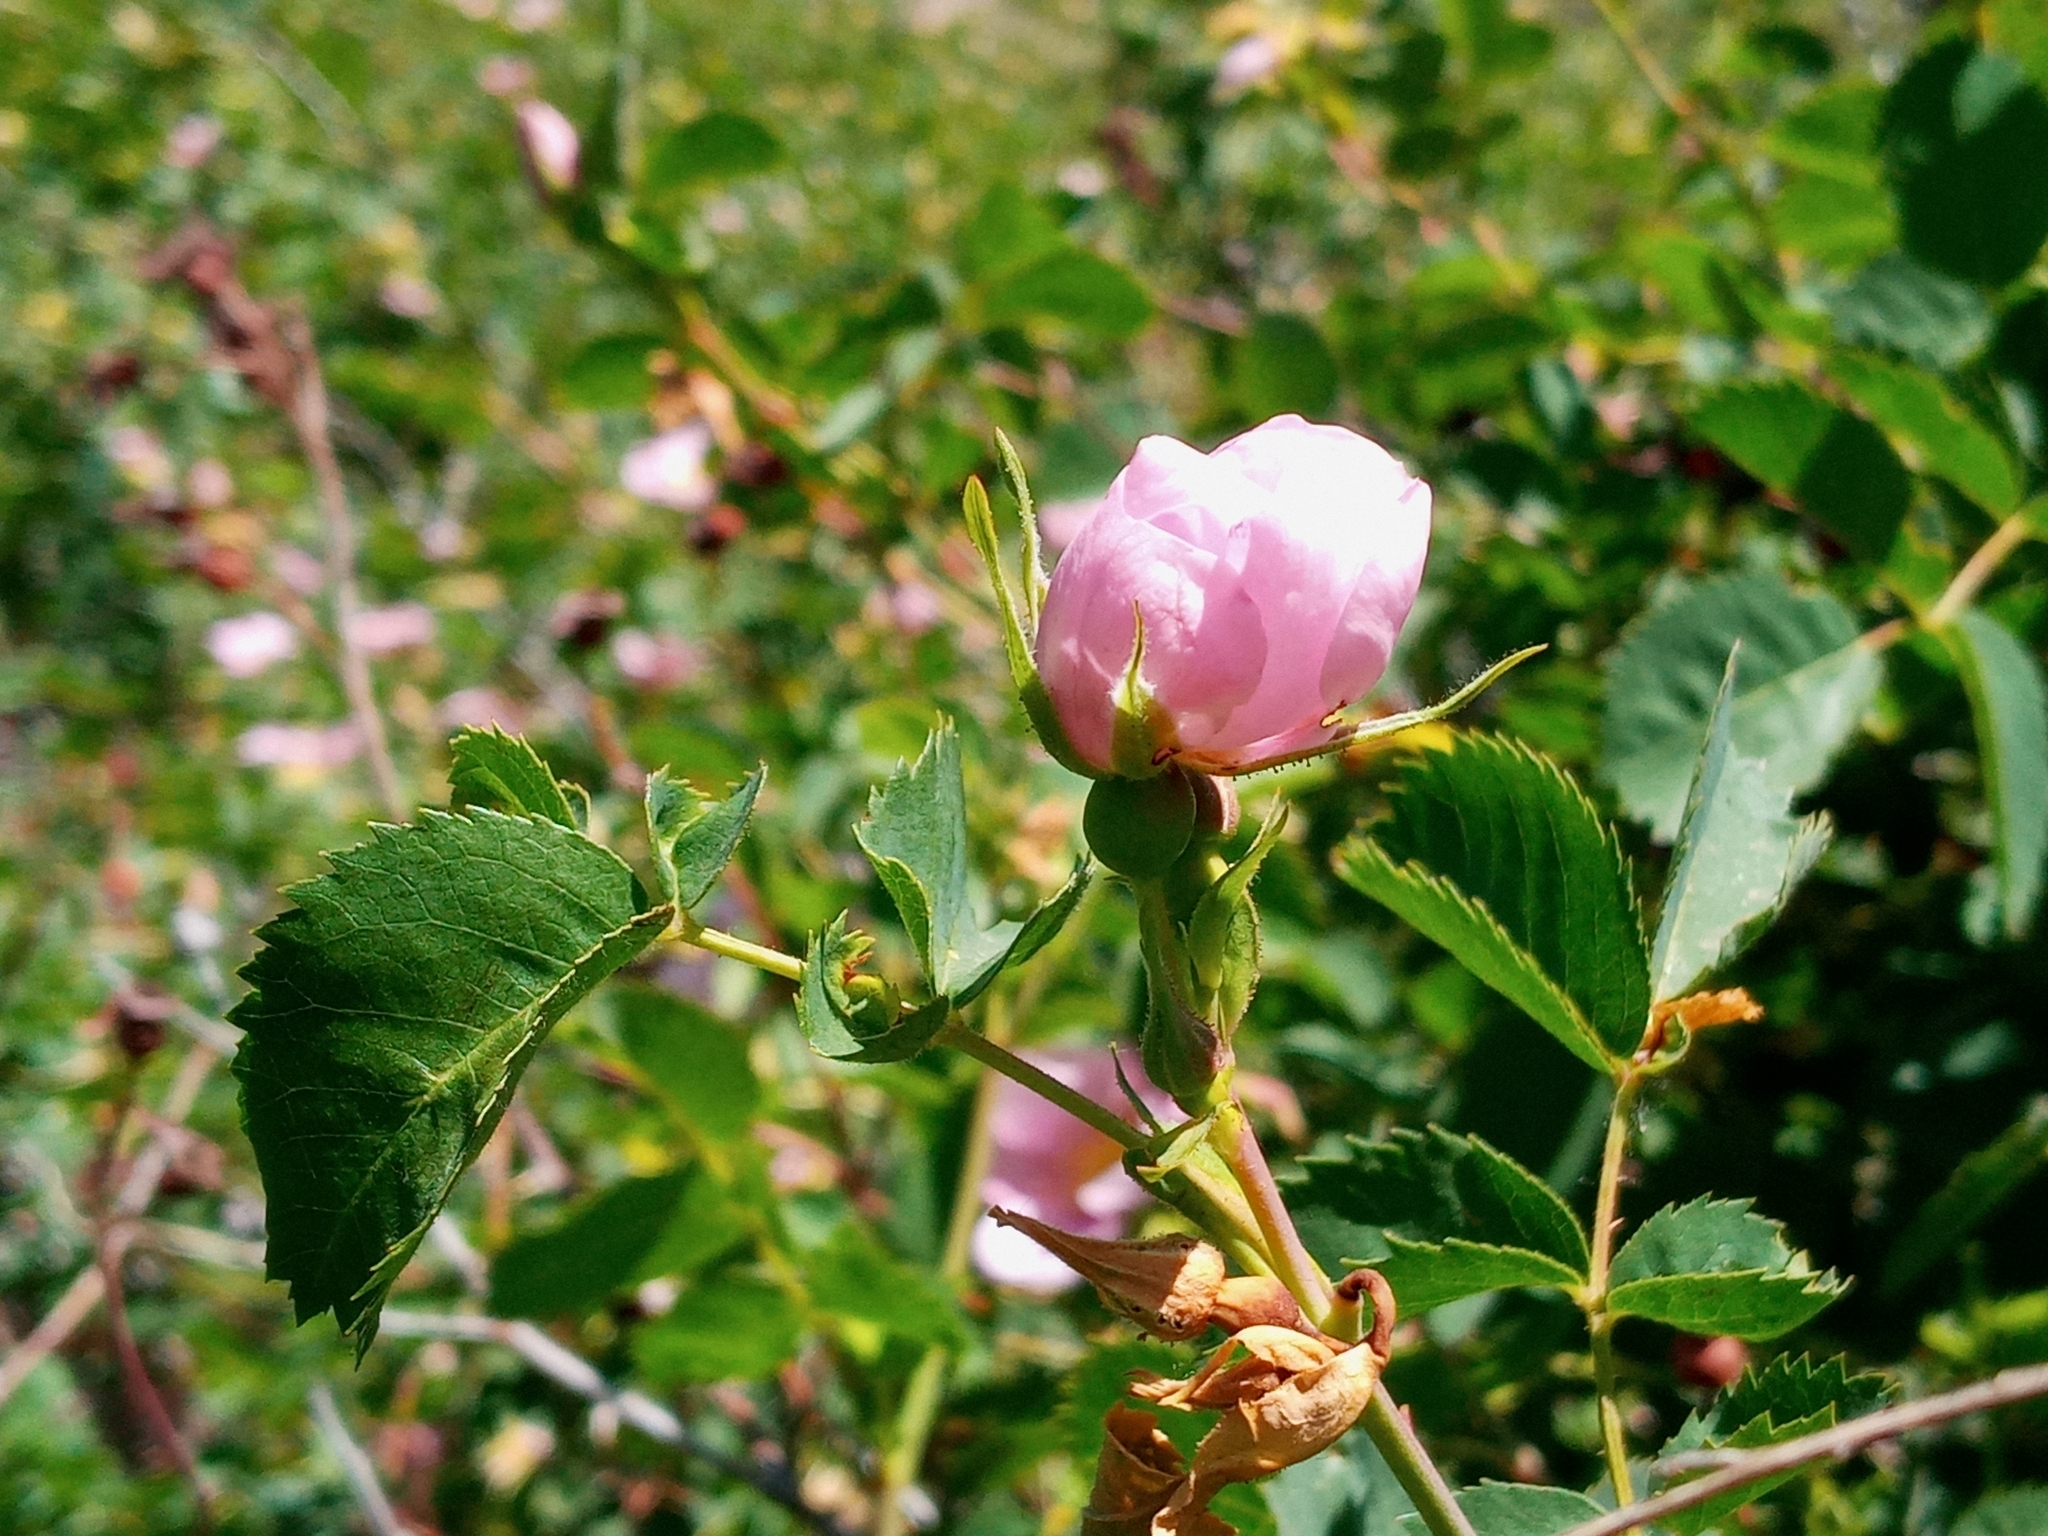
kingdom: Plantae
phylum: Tracheophyta
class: Magnoliopsida
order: Rosales
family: Rosaceae
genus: Rosa
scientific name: Rosa californica
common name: California rose
